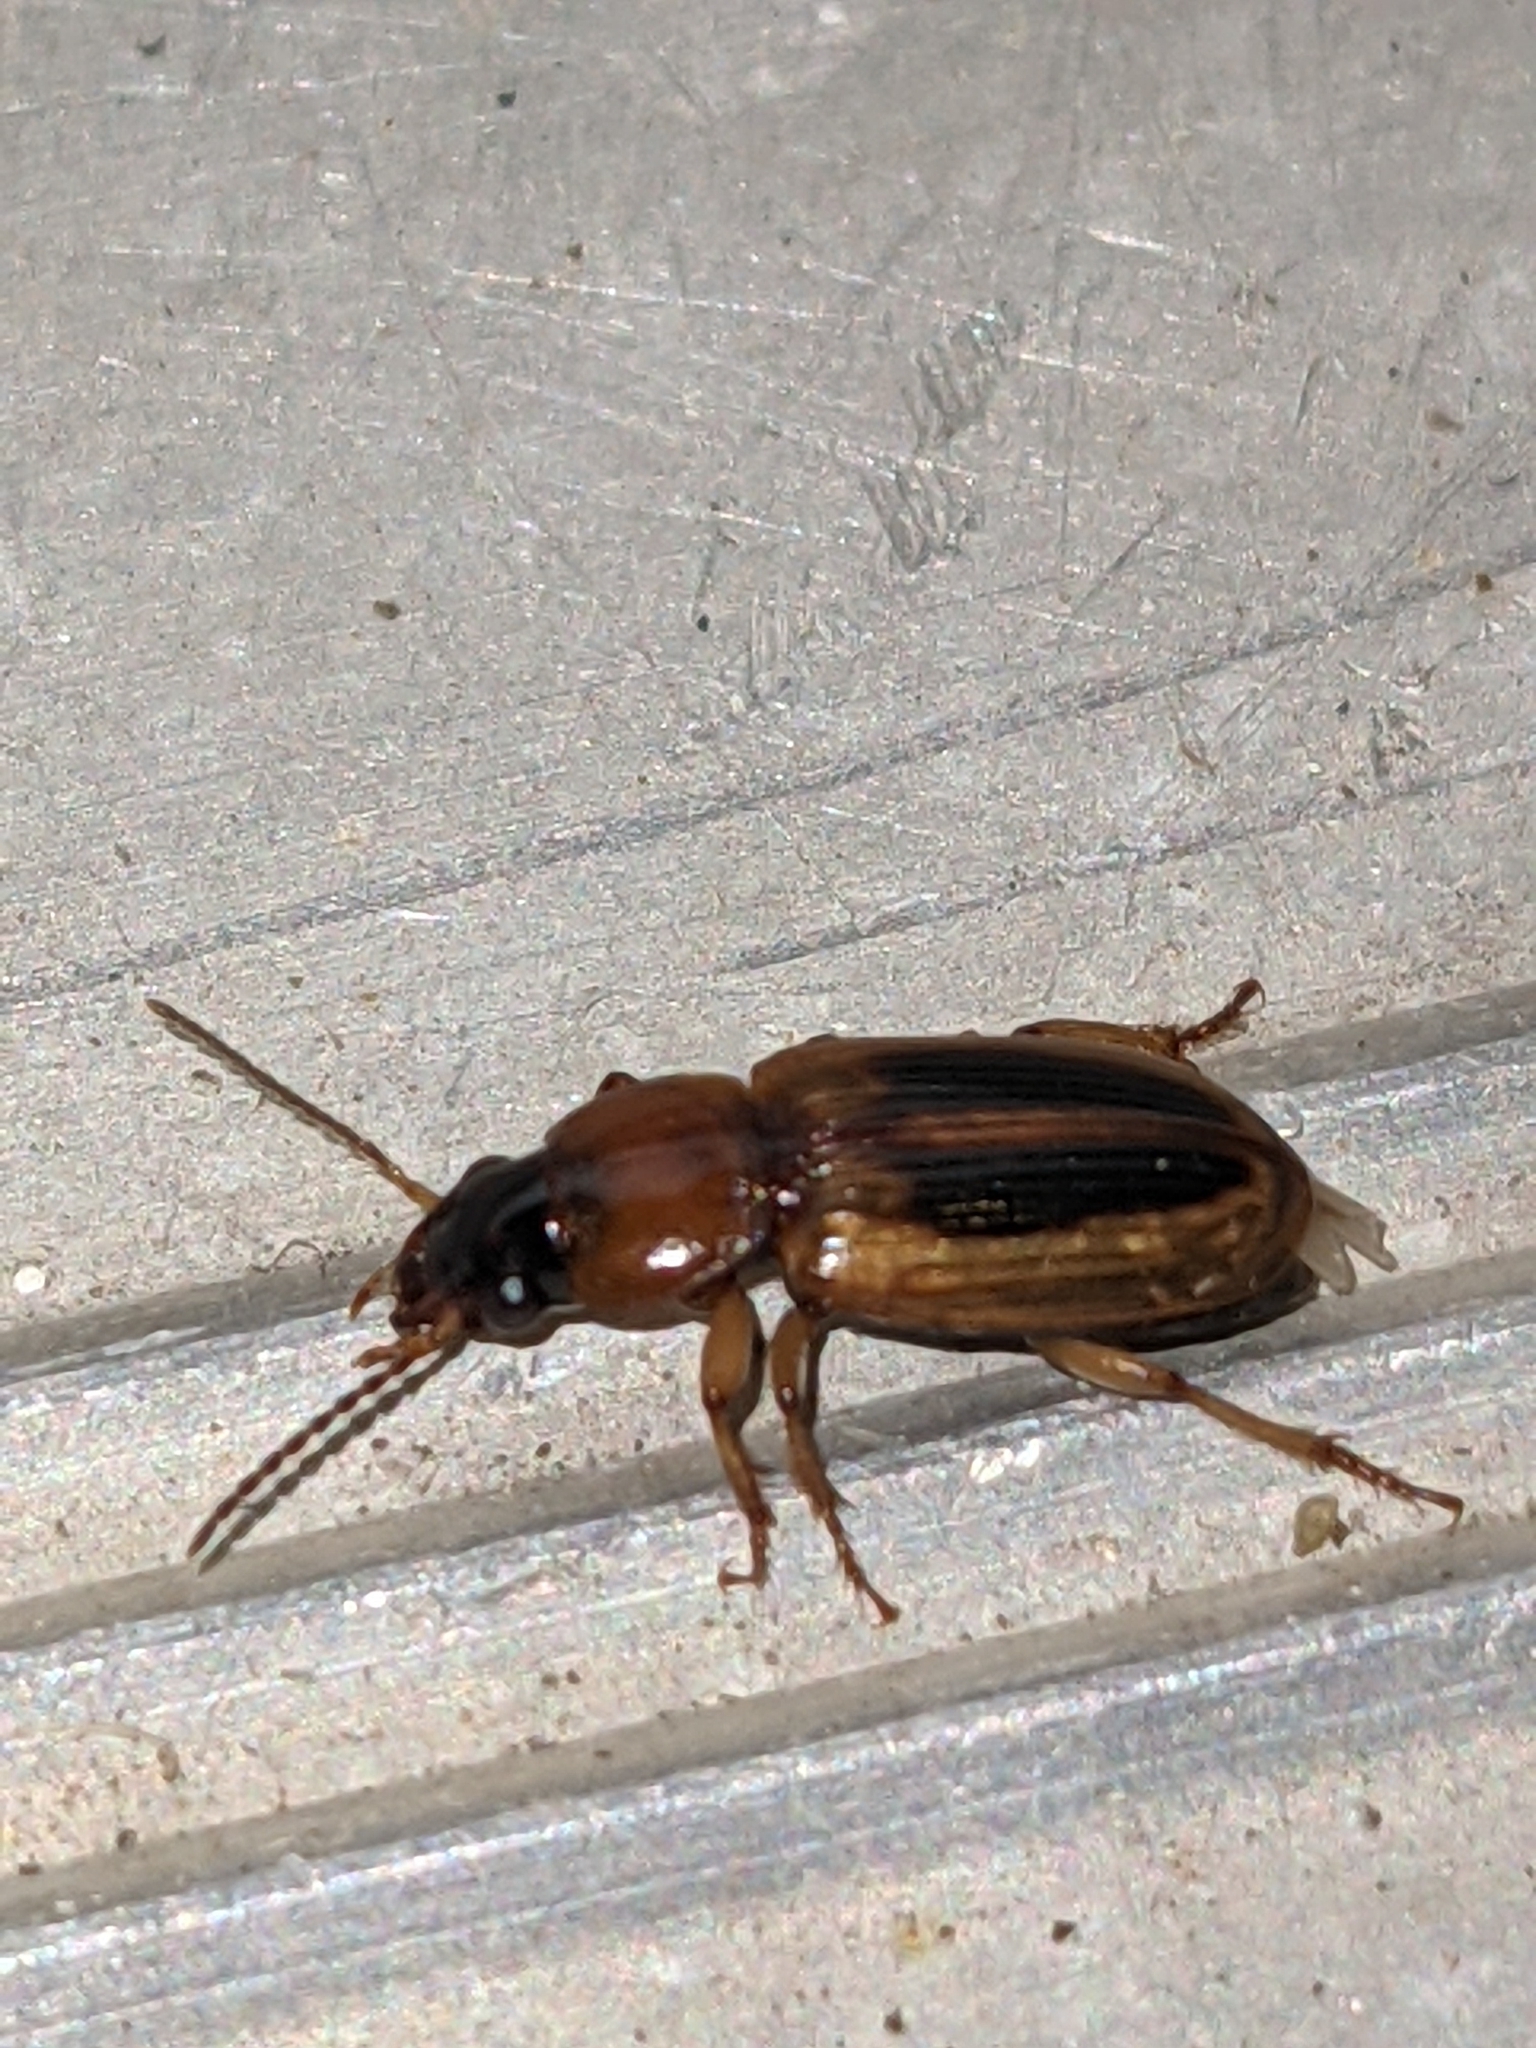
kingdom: Animalia
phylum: Arthropoda
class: Insecta
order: Coleoptera
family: Carabidae
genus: Stenolophus
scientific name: Stenolophus lecontei
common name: Leconte's seedcorn beetle
